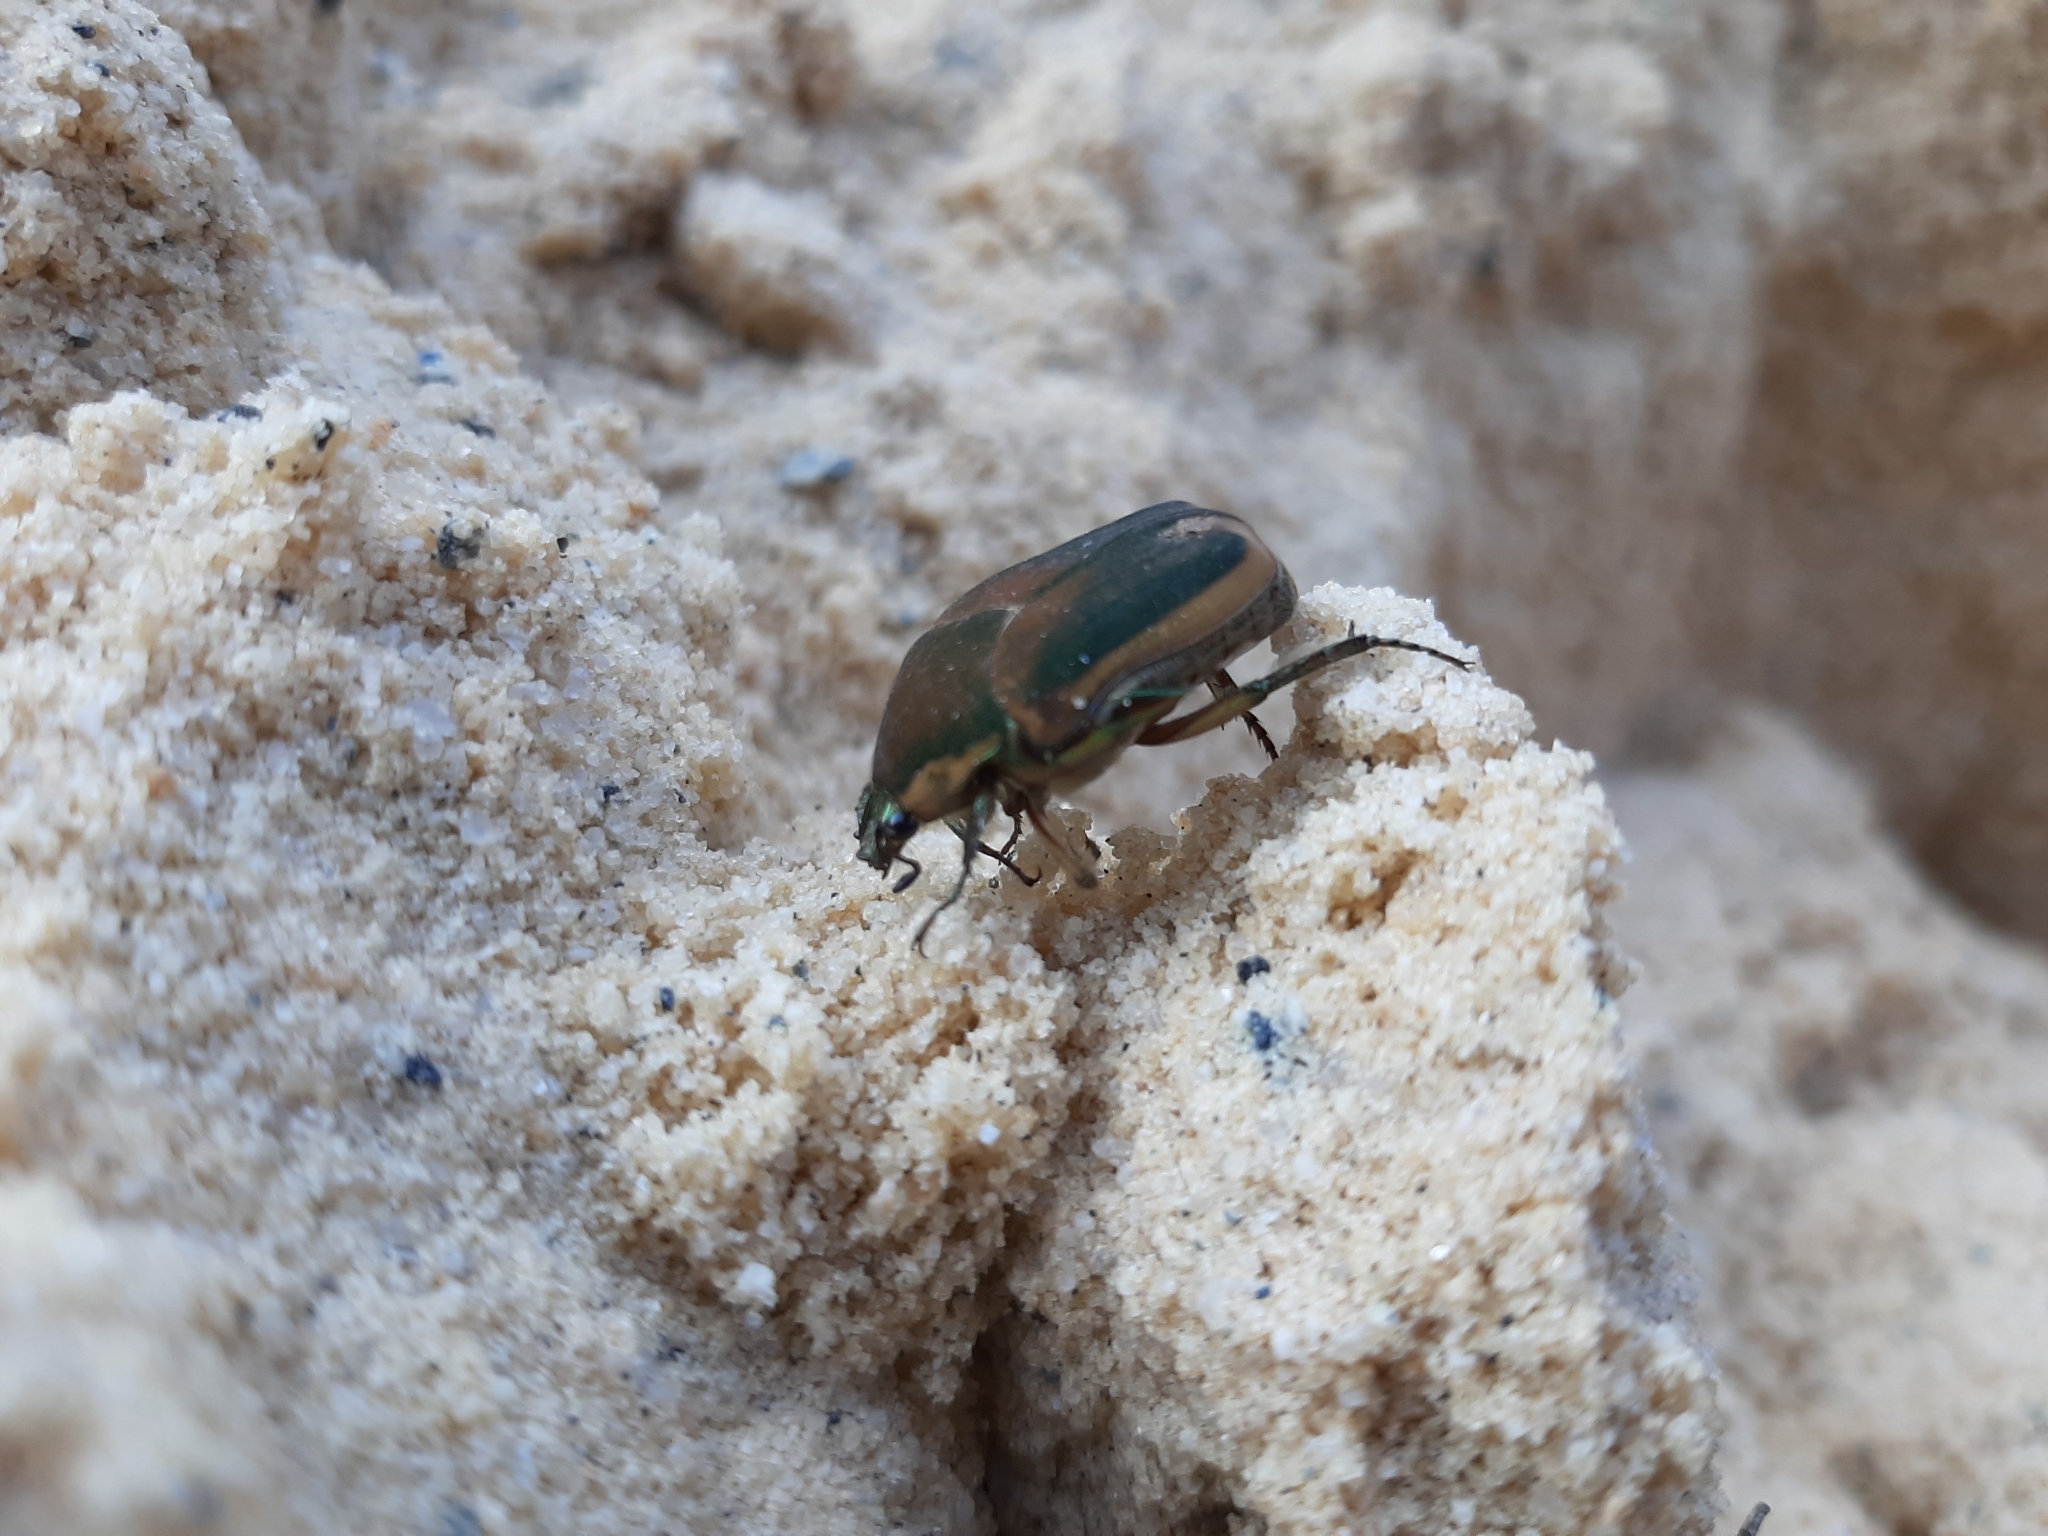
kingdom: Animalia
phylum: Arthropoda
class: Insecta
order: Coleoptera
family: Scarabaeidae
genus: Cotinis
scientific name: Cotinis nitida
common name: Common green june beetle
